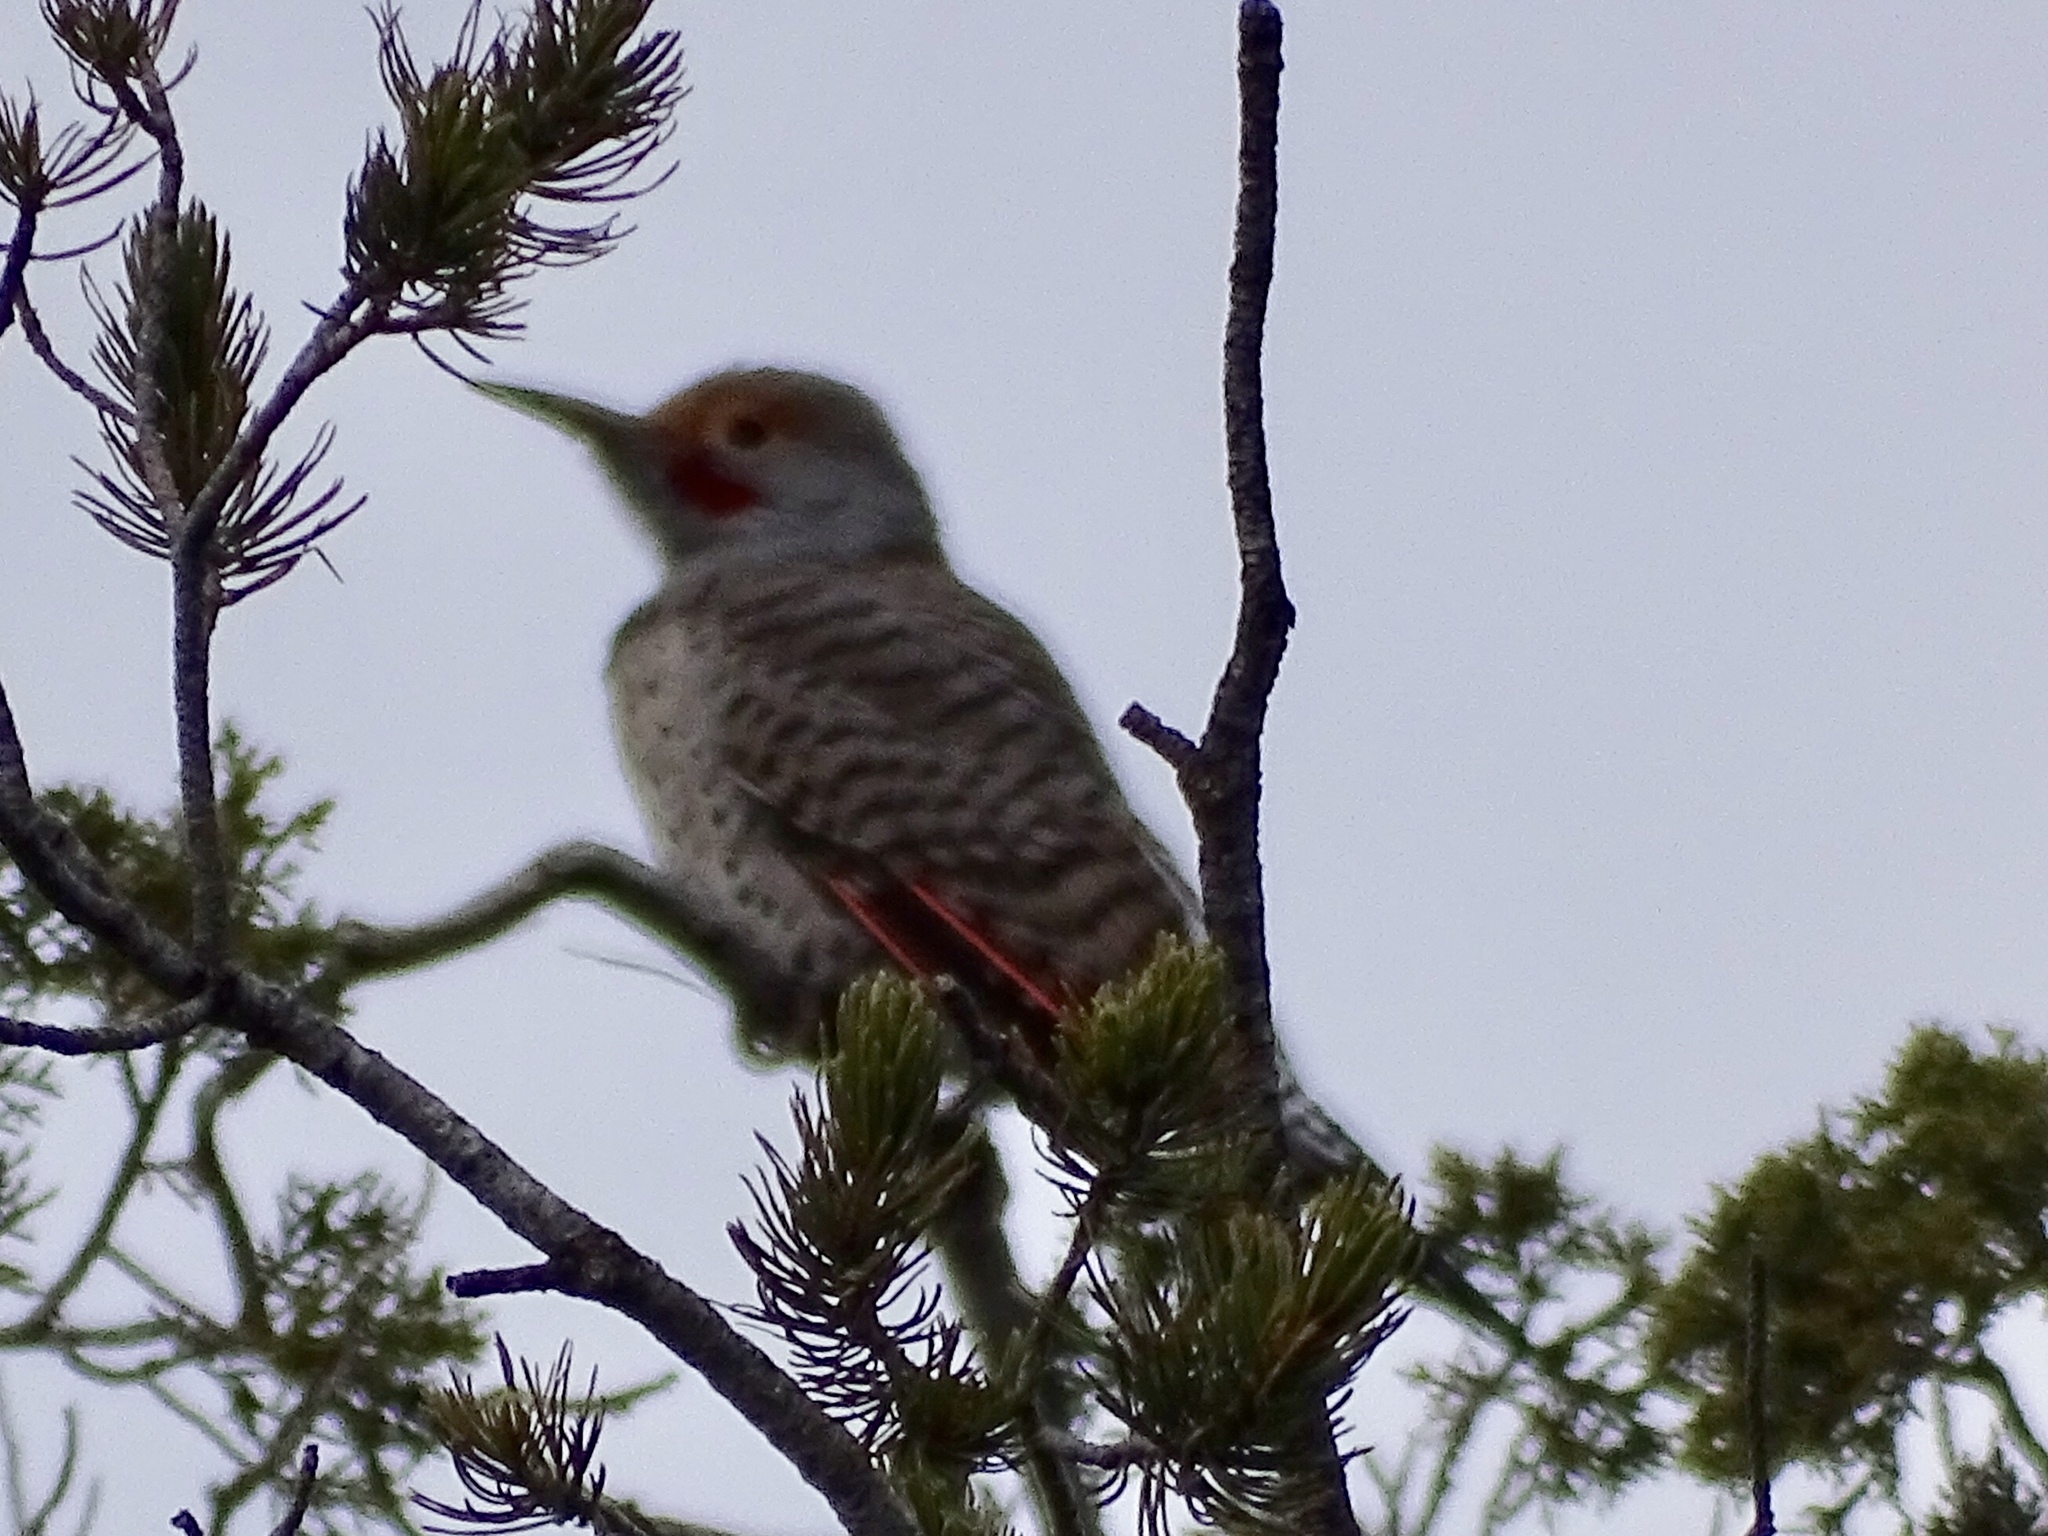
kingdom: Animalia
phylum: Chordata
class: Aves
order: Piciformes
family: Picidae
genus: Colaptes
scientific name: Colaptes auratus
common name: Northern flicker
